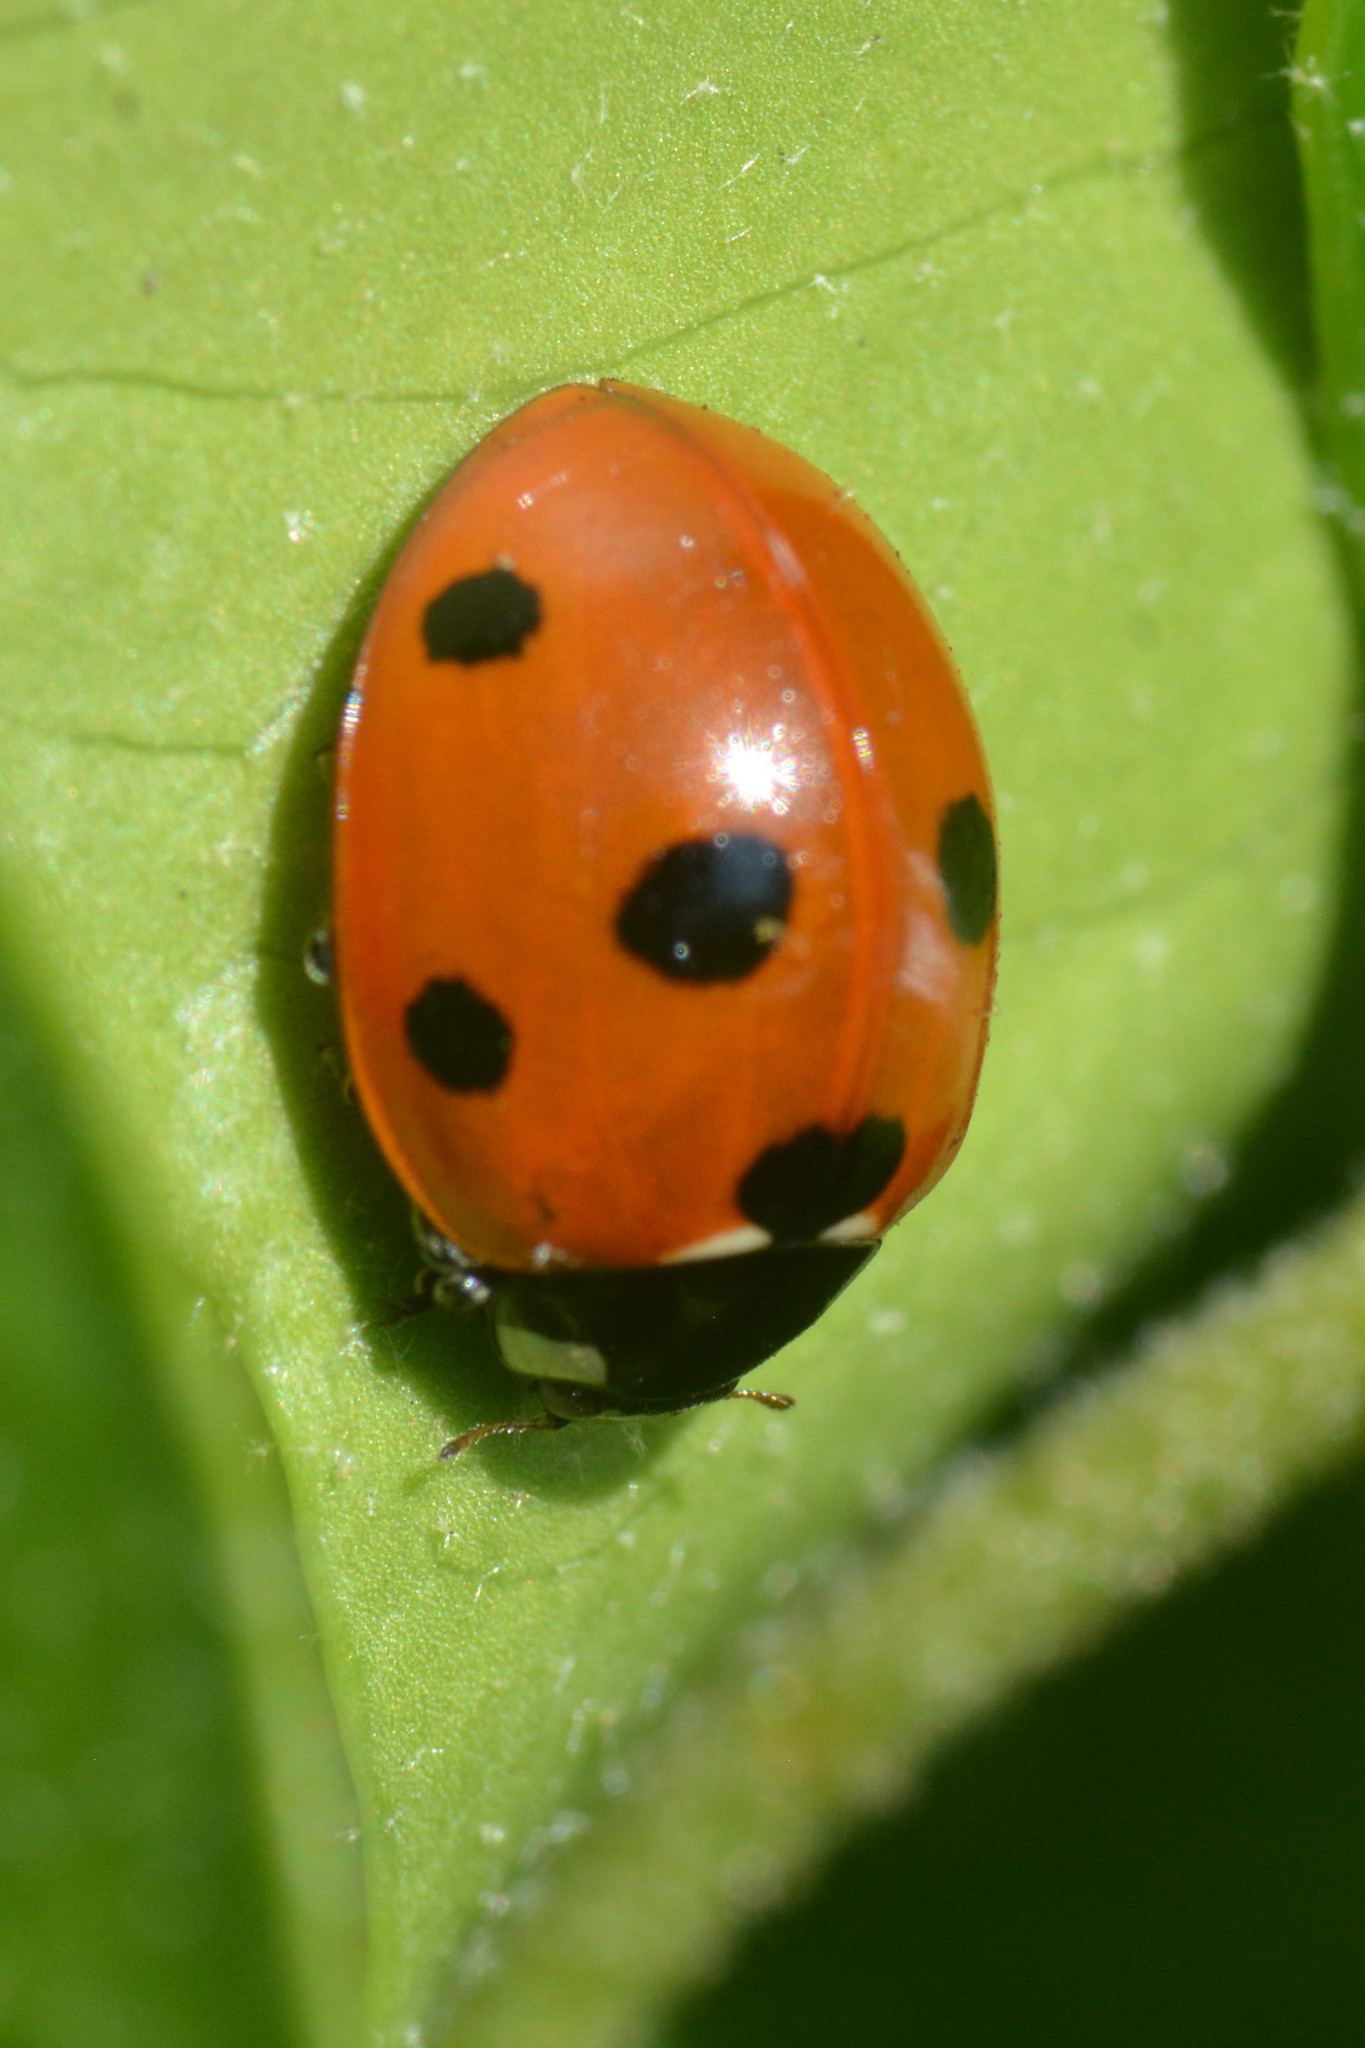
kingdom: Animalia
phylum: Arthropoda
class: Insecta
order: Coleoptera
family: Coccinellidae
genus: Coccinella
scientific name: Coccinella septempunctata
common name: Sevenspotted lady beetle
